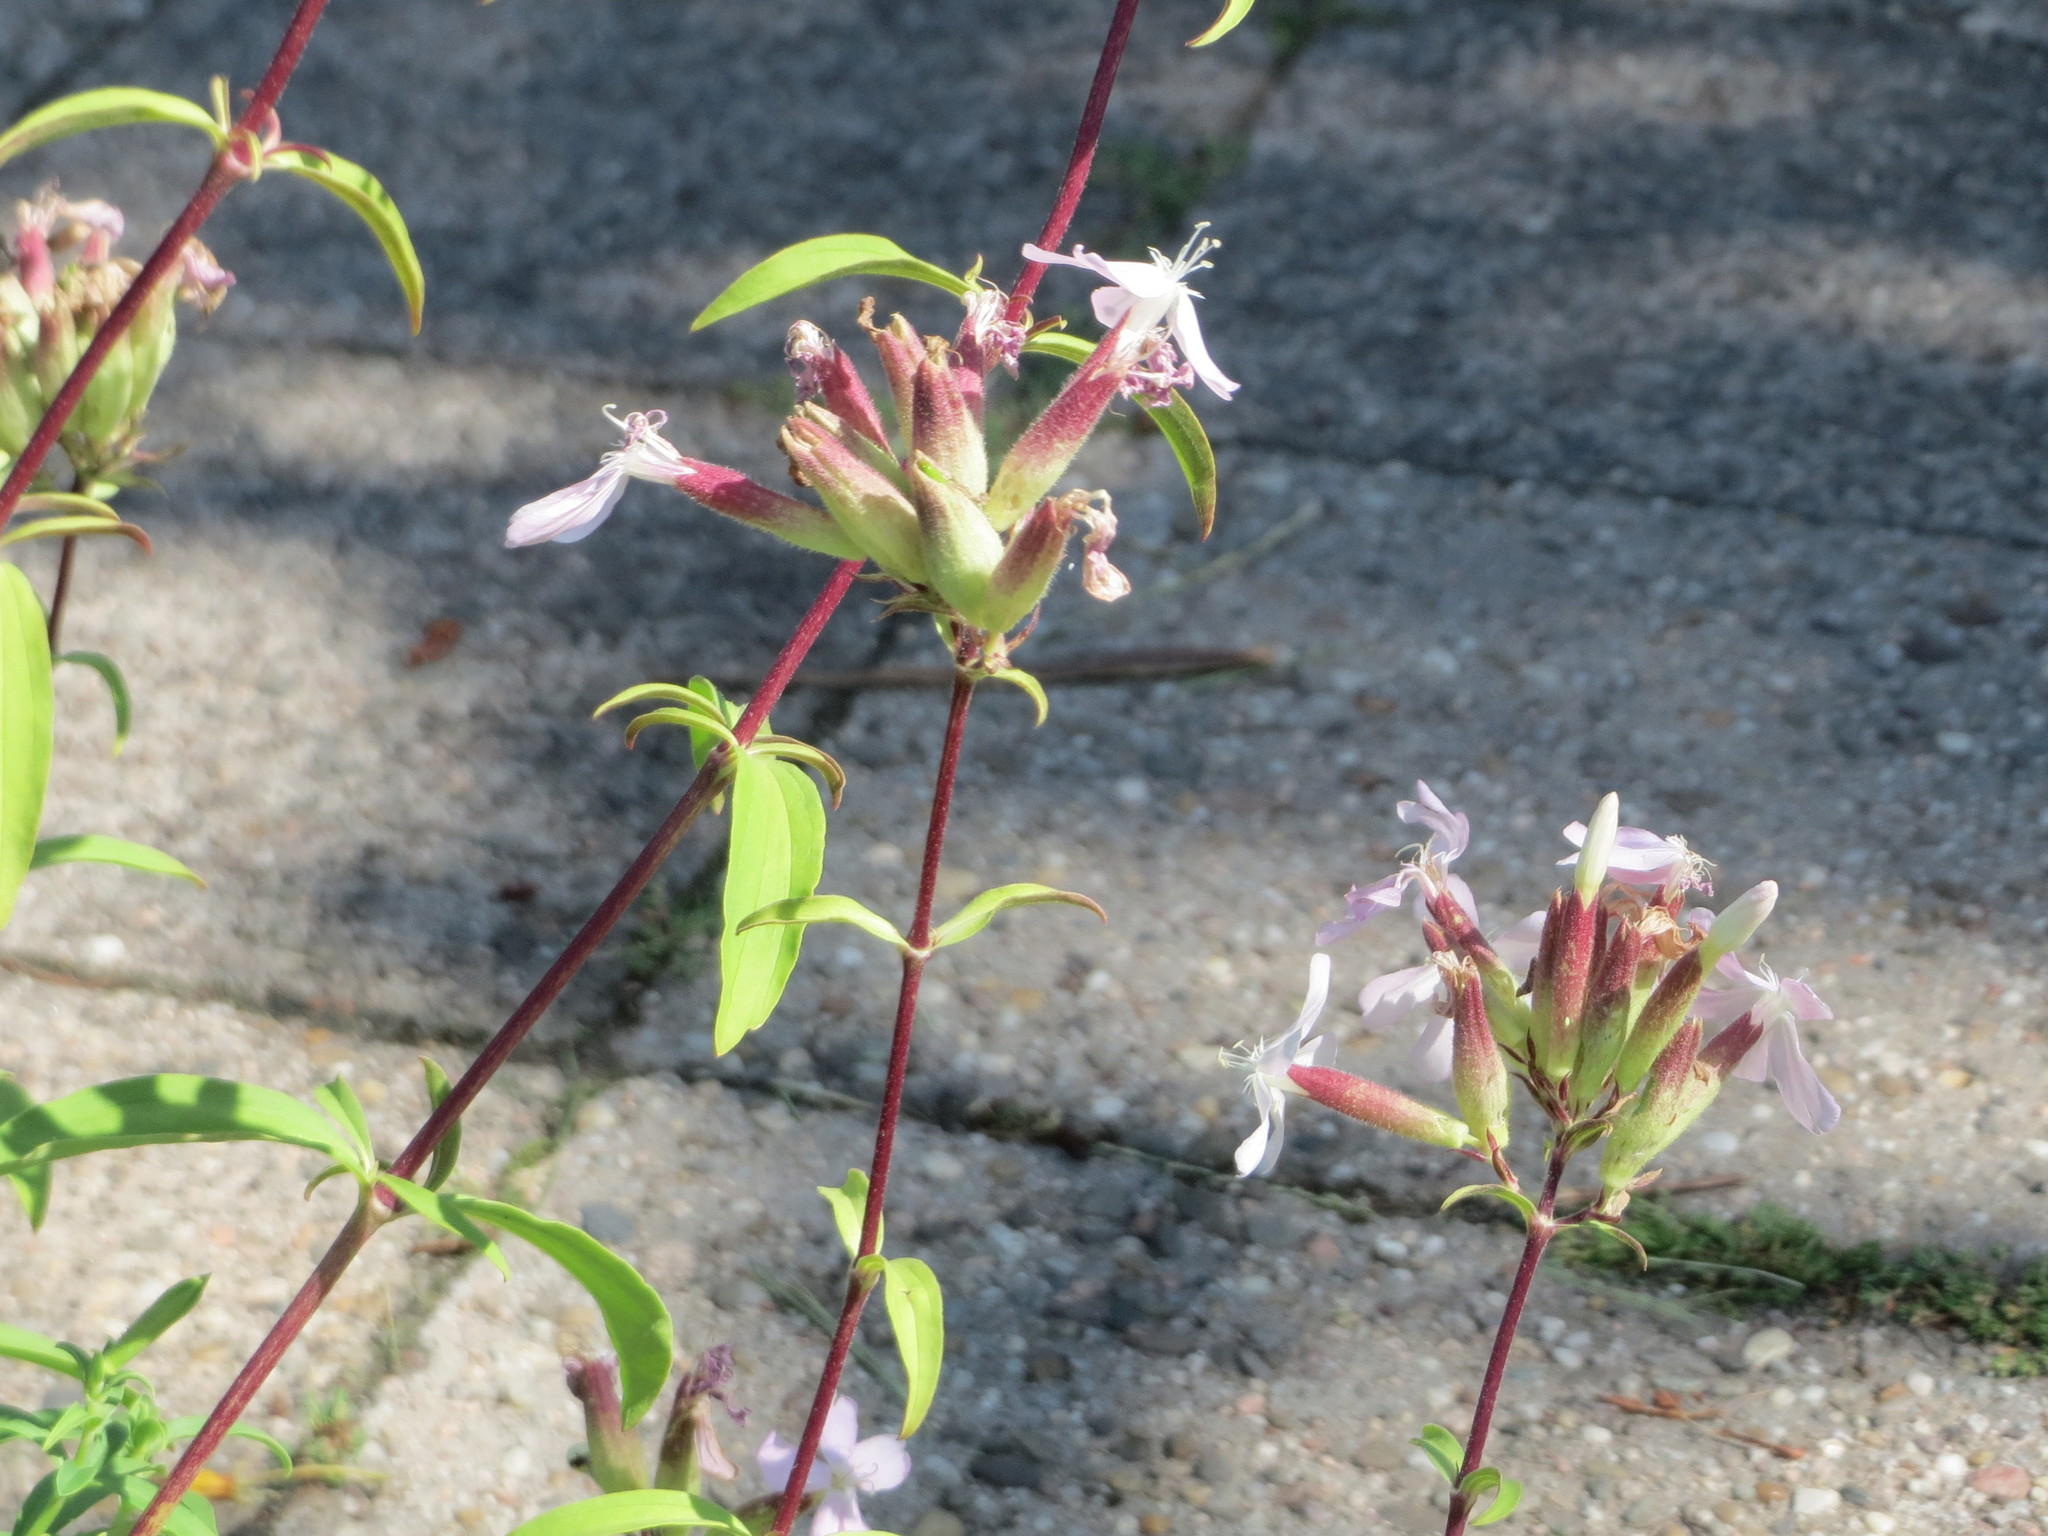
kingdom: Plantae
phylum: Tracheophyta
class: Magnoliopsida
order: Caryophyllales
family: Caryophyllaceae
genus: Saponaria
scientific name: Saponaria officinalis
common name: Soapwort
